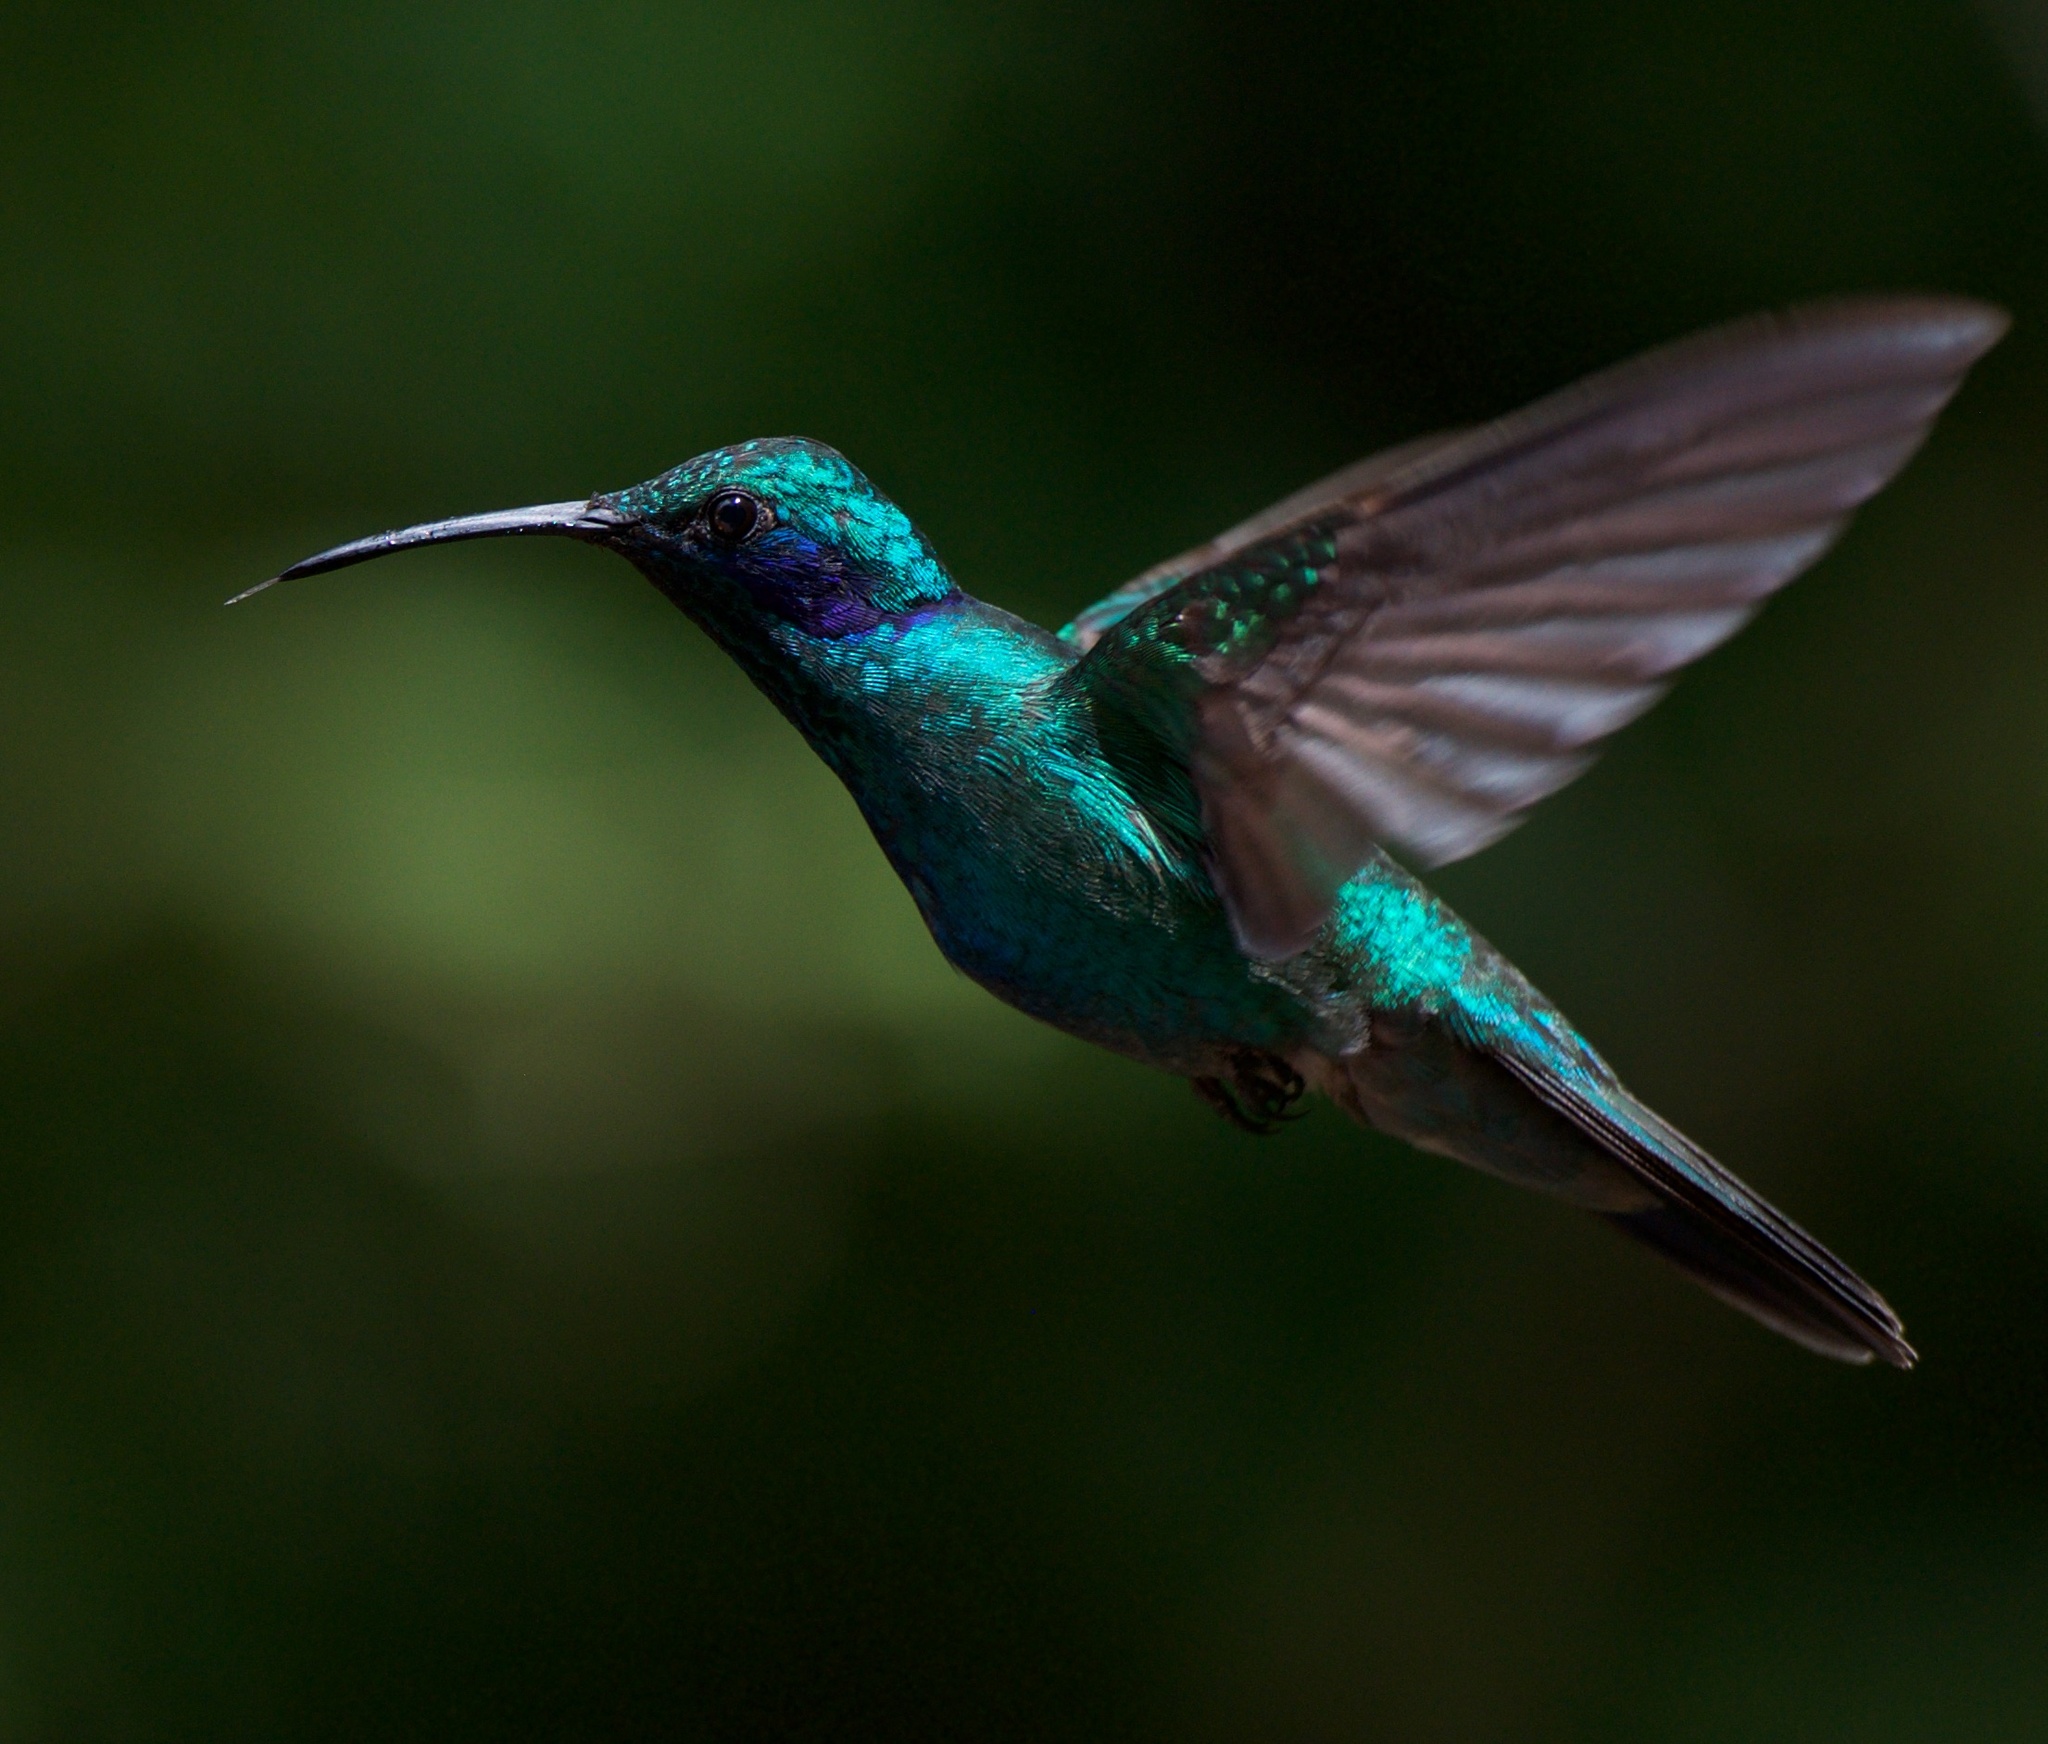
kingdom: Animalia
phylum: Chordata
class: Aves
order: Apodiformes
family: Trochilidae
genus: Colibri
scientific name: Colibri cyanotus
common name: Lesser violetear
